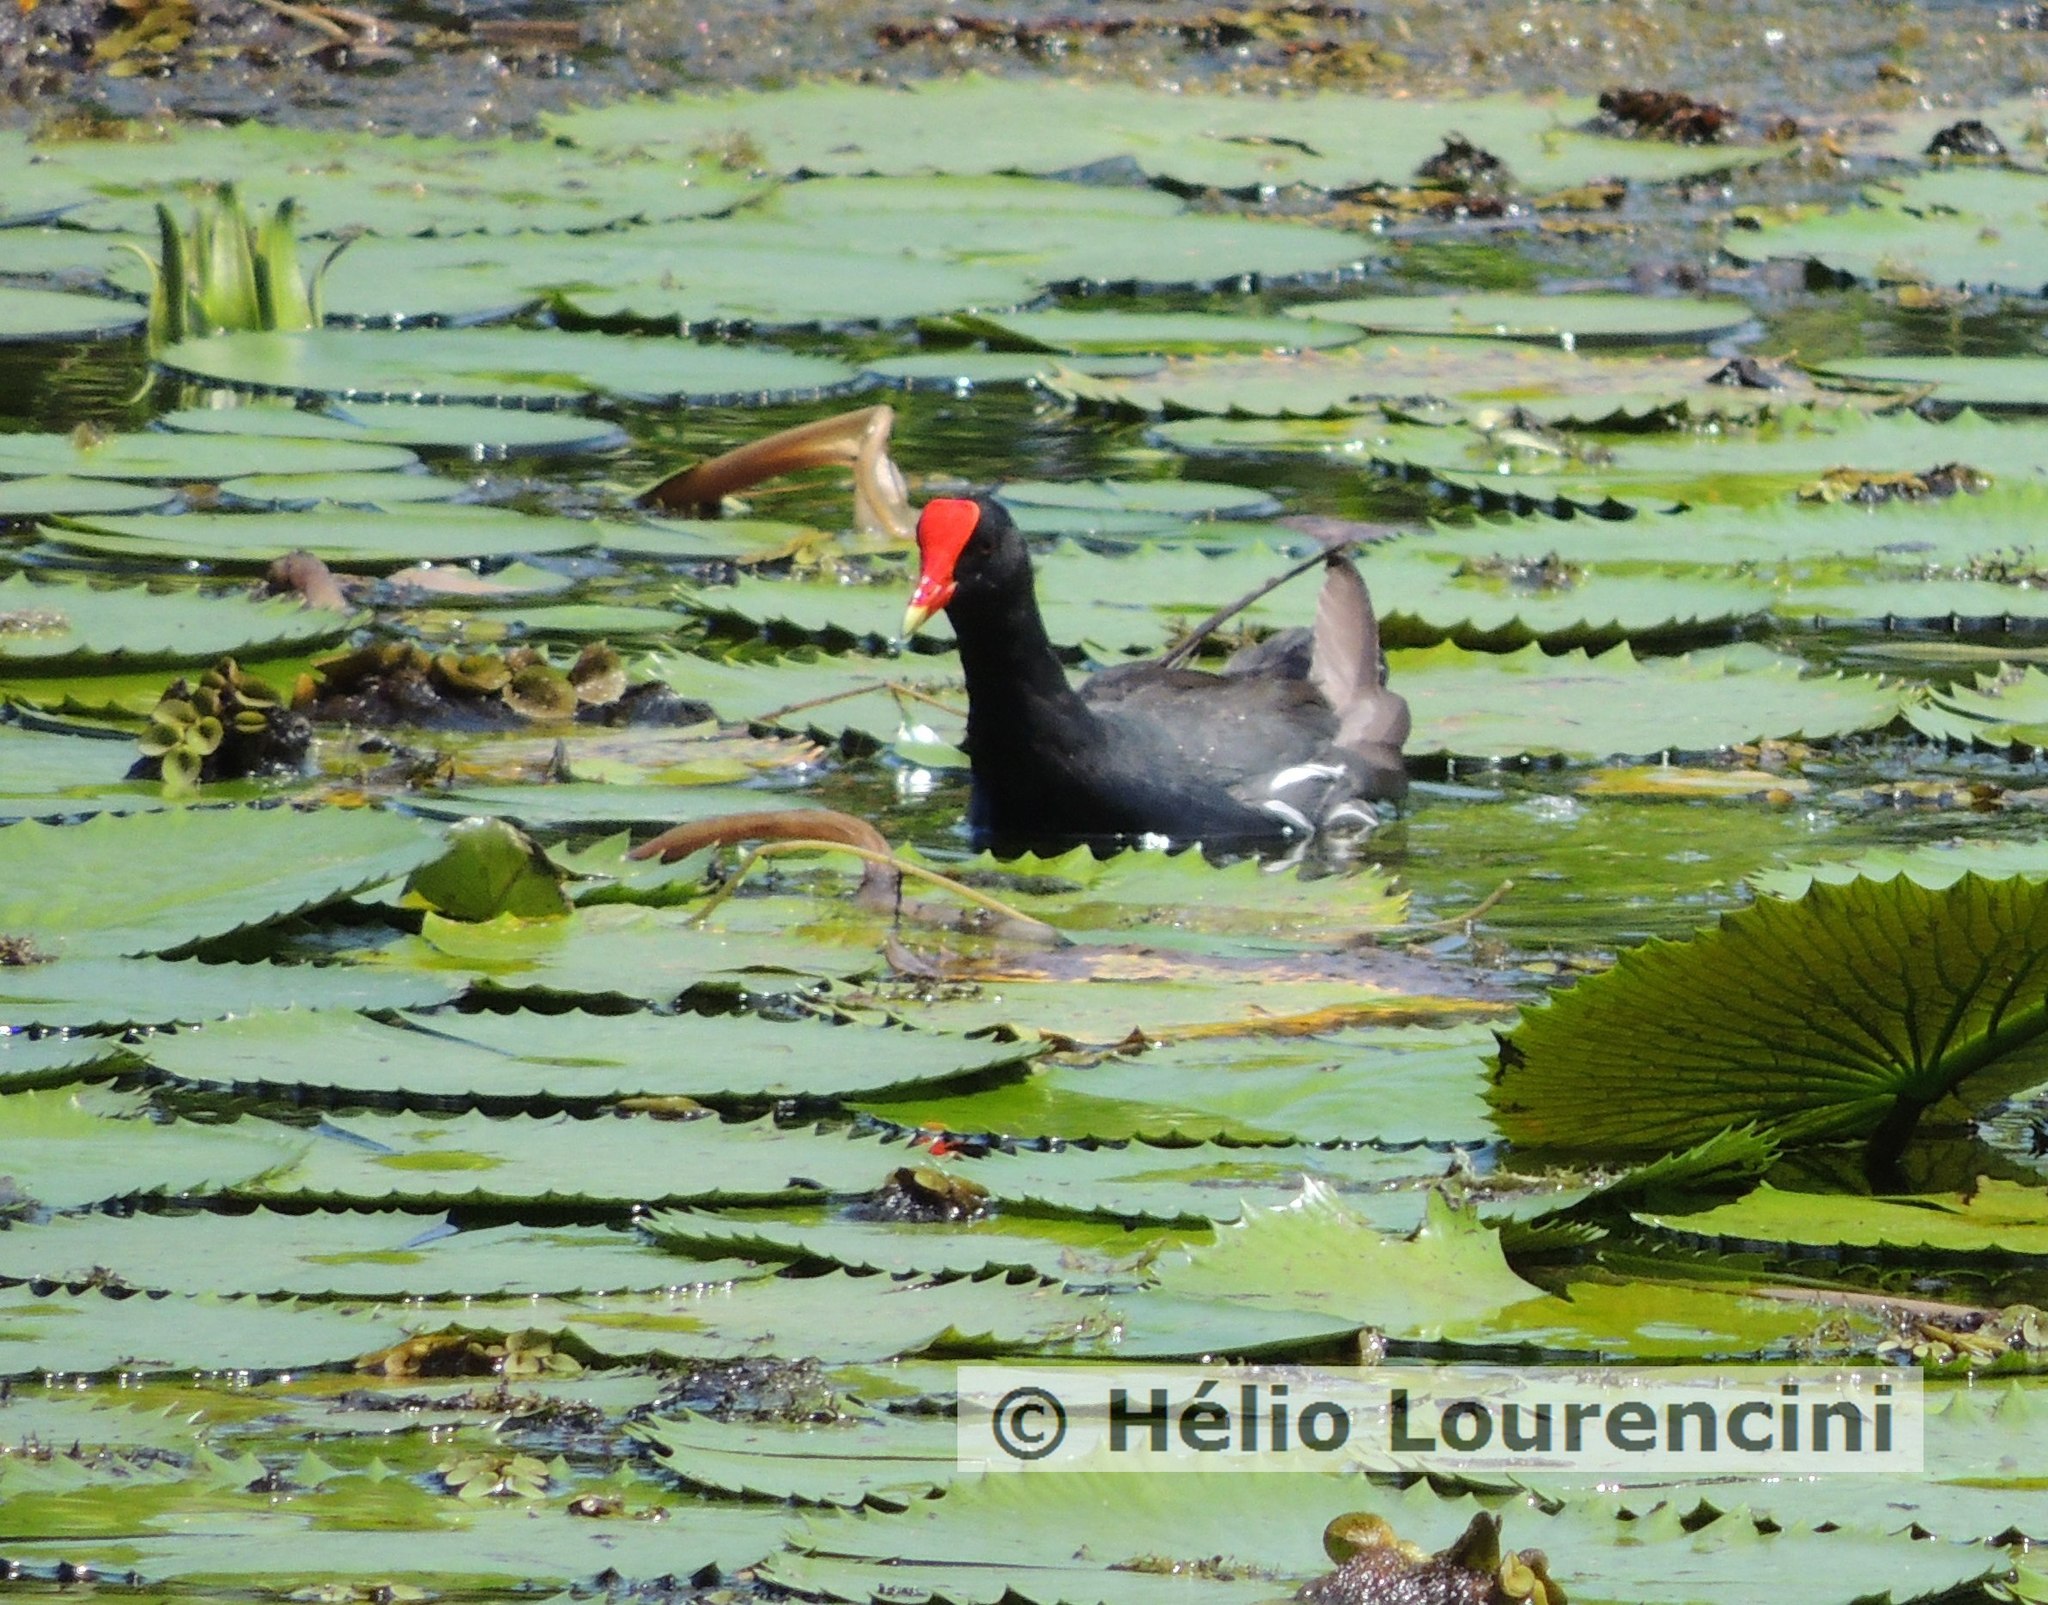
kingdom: Animalia
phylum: Chordata
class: Aves
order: Gruiformes
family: Rallidae
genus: Gallinula
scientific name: Gallinula chloropus
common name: Common moorhen
